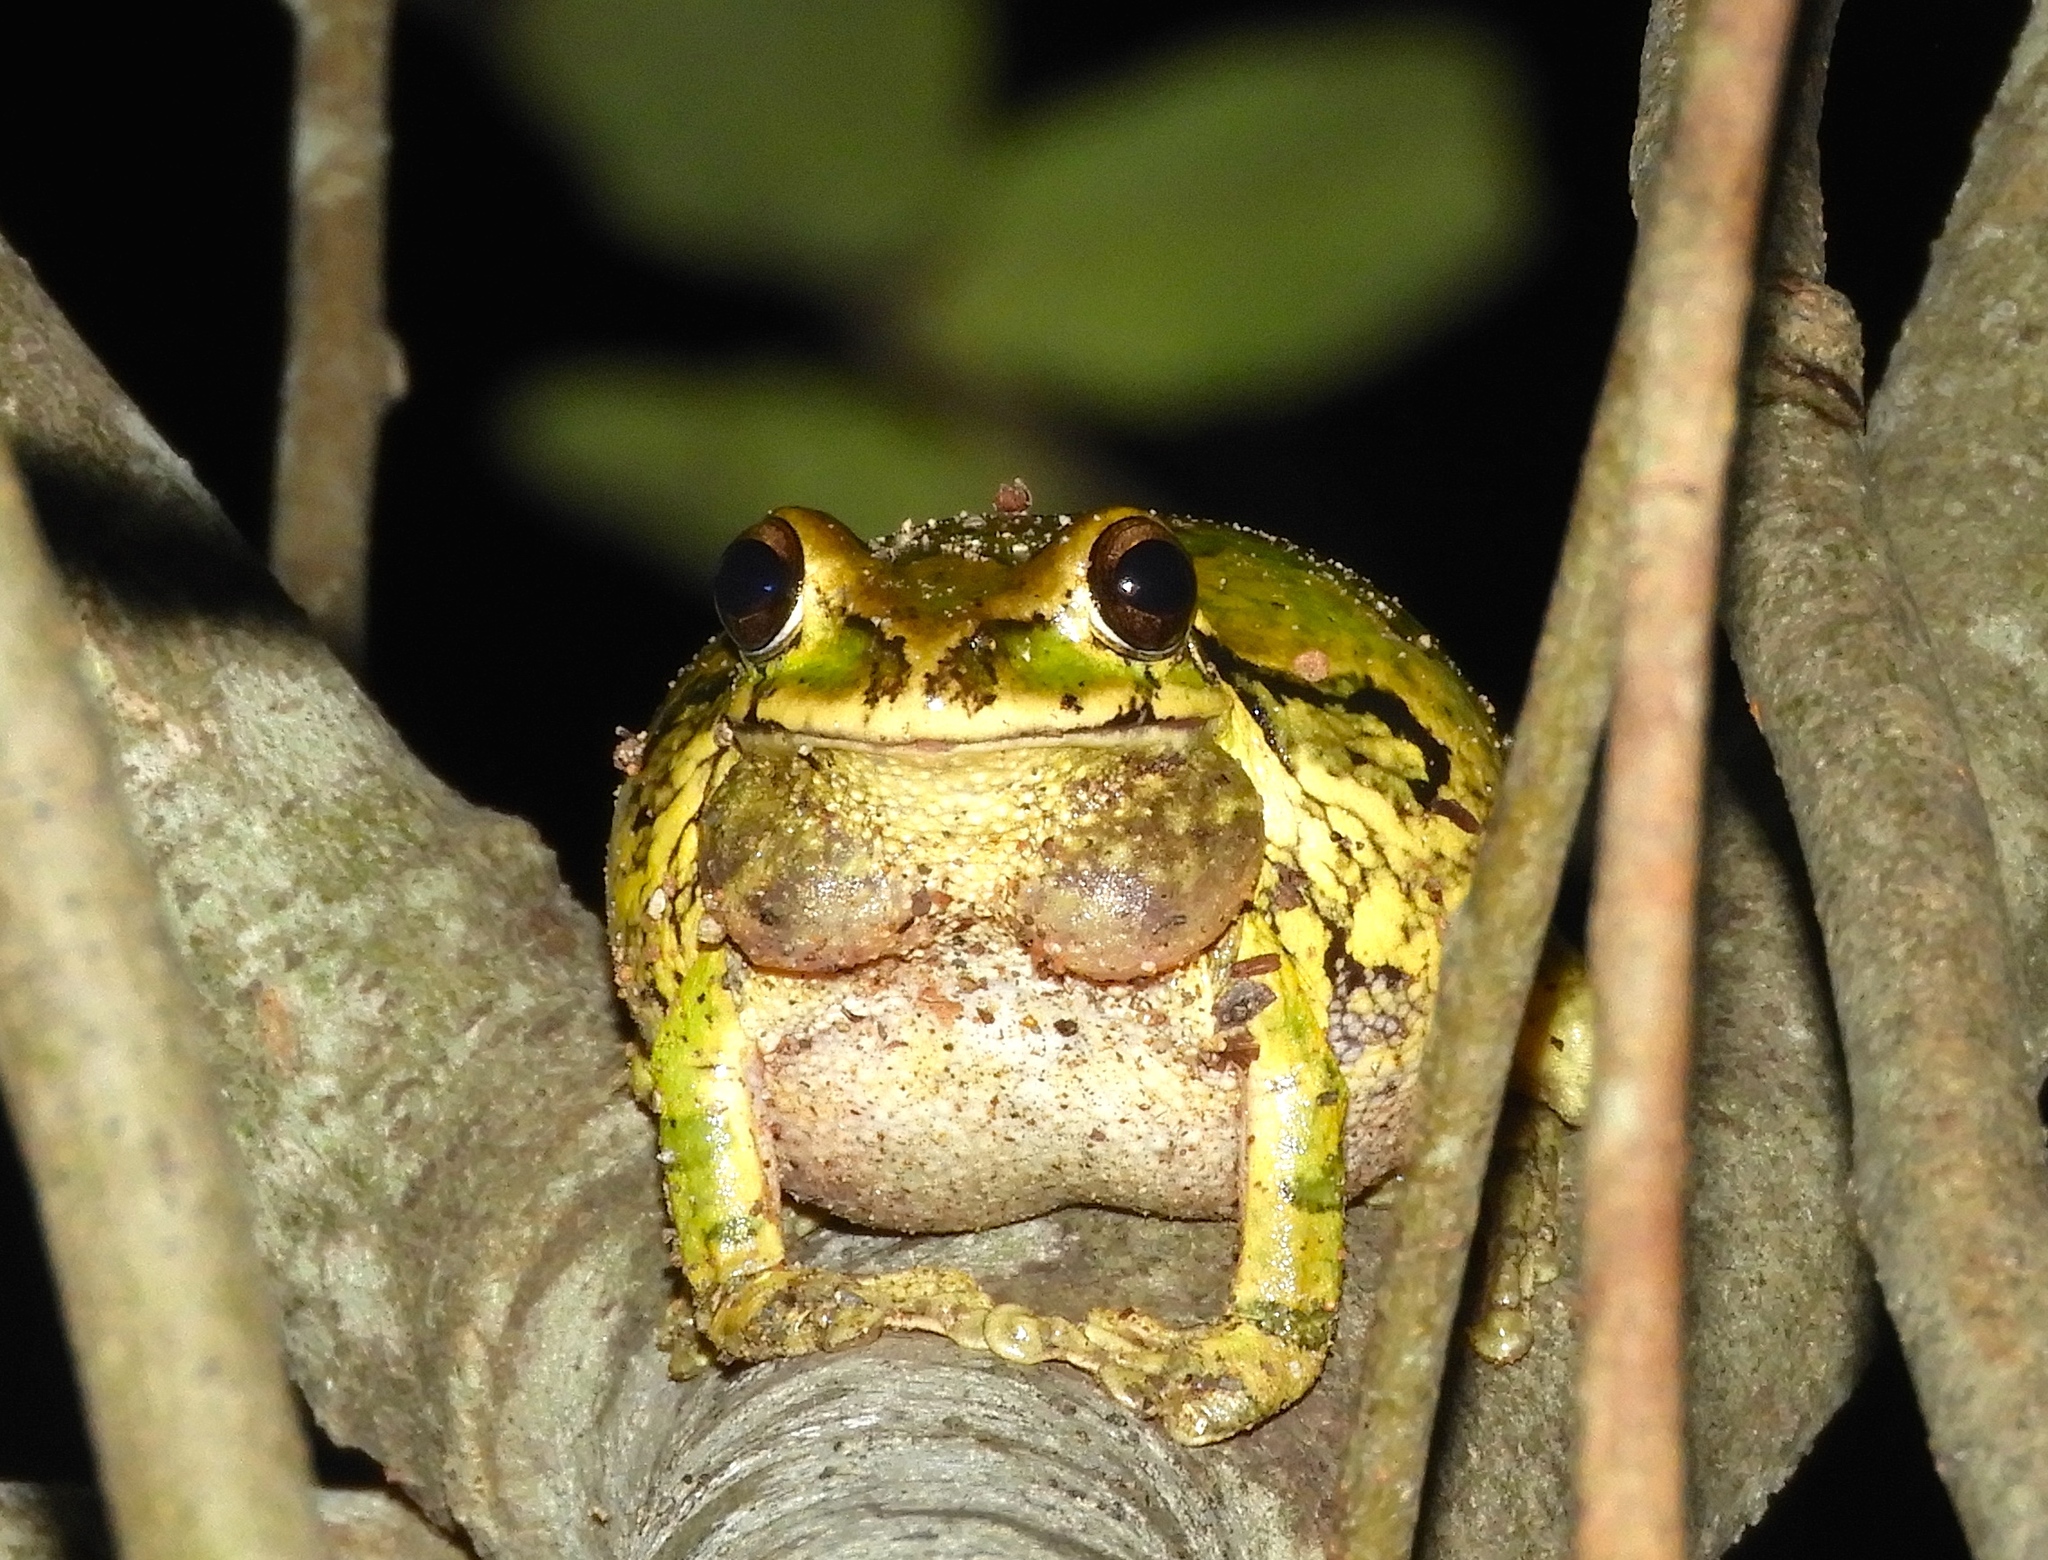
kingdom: Animalia
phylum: Chordata
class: Amphibia
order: Anura
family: Hylidae
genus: Smilisca
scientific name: Smilisca baudinii
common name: Mexican smilisca
